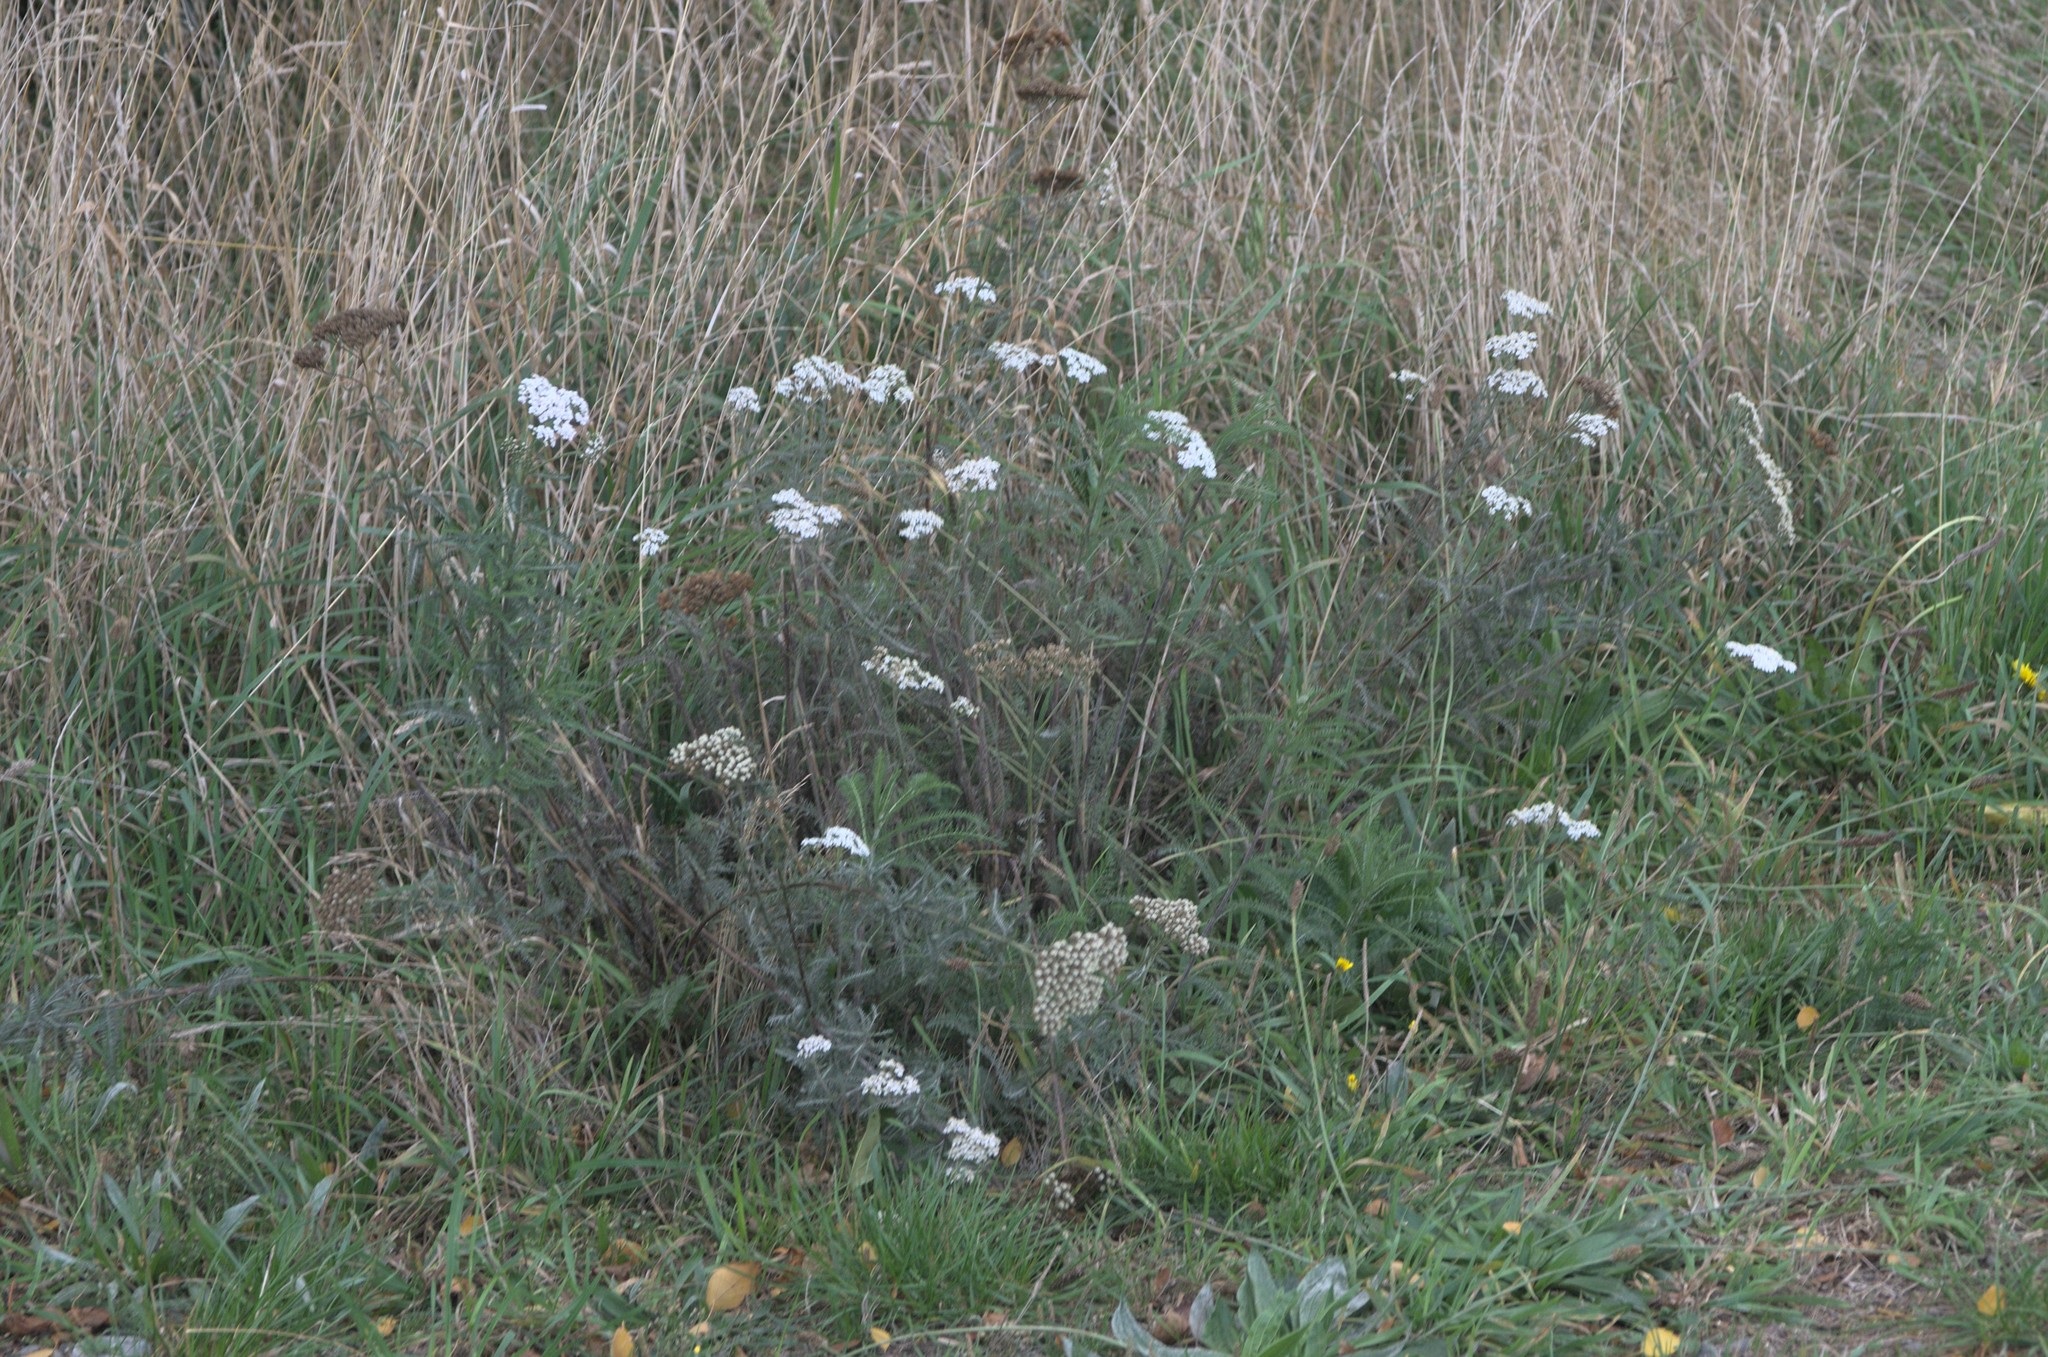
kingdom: Plantae
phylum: Tracheophyta
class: Magnoliopsida
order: Asterales
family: Asteraceae
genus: Achillea
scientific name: Achillea millefolium
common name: Yarrow
